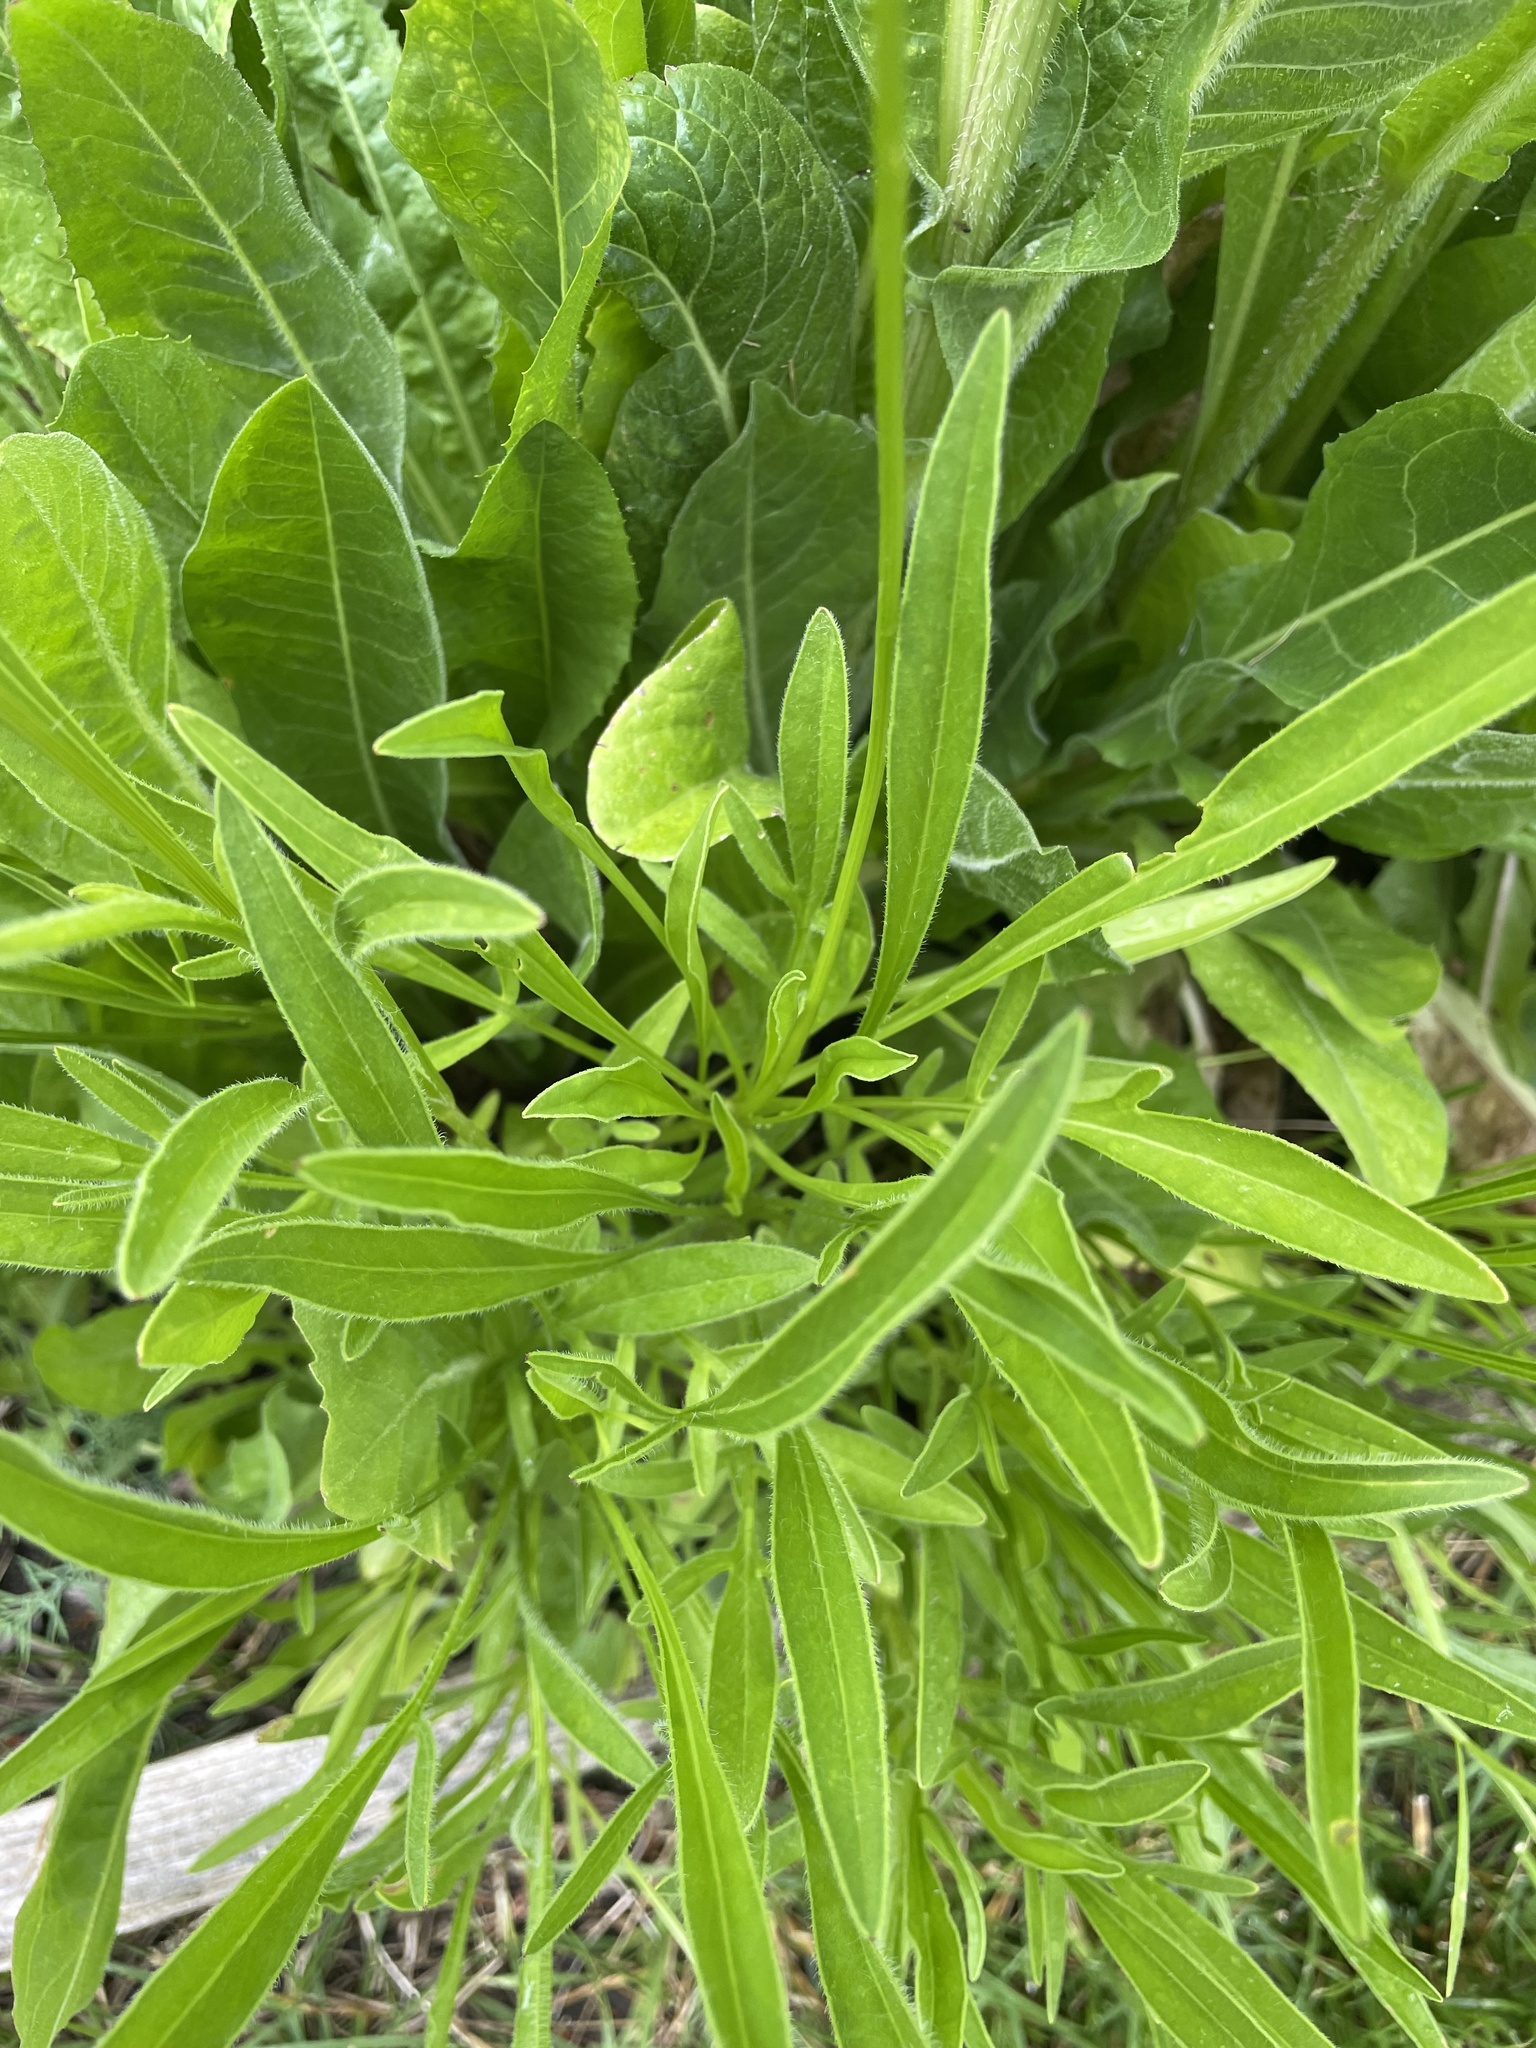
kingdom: Plantae
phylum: Tracheophyta
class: Magnoliopsida
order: Asterales
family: Asteraceae
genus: Coreopsis
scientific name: Coreopsis lanceolata
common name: Garden coreopsis
